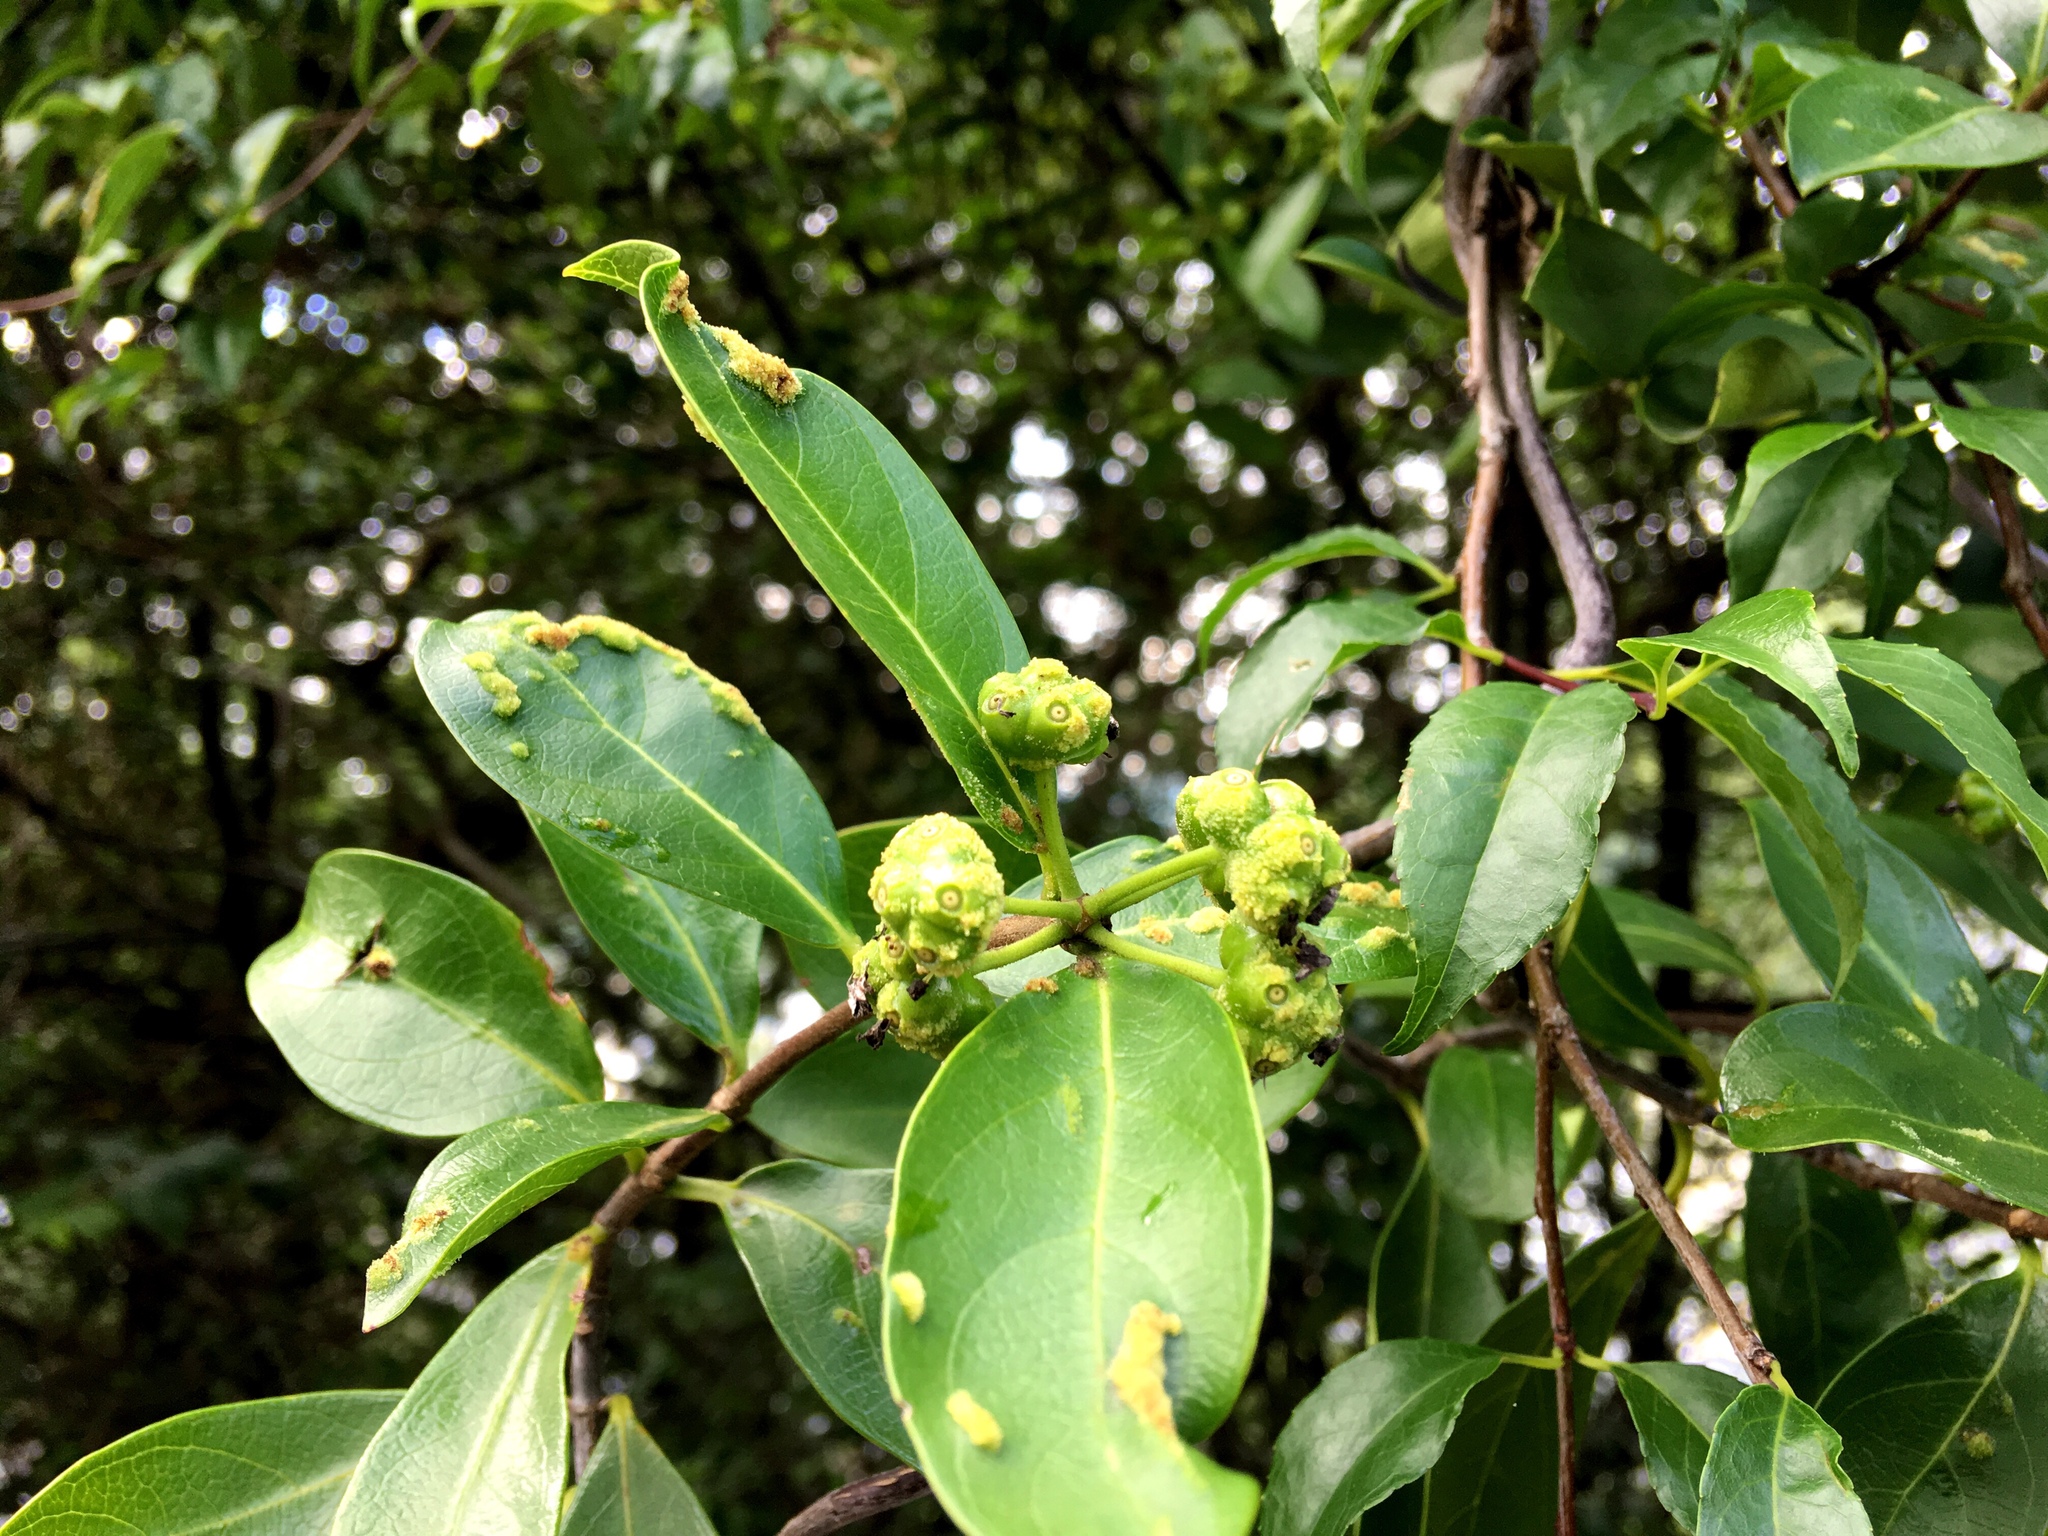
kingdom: Plantae
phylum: Tracheophyta
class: Magnoliopsida
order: Gentianales
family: Rubiaceae
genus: Gynochthodes
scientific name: Gynochthodes parvifolia
